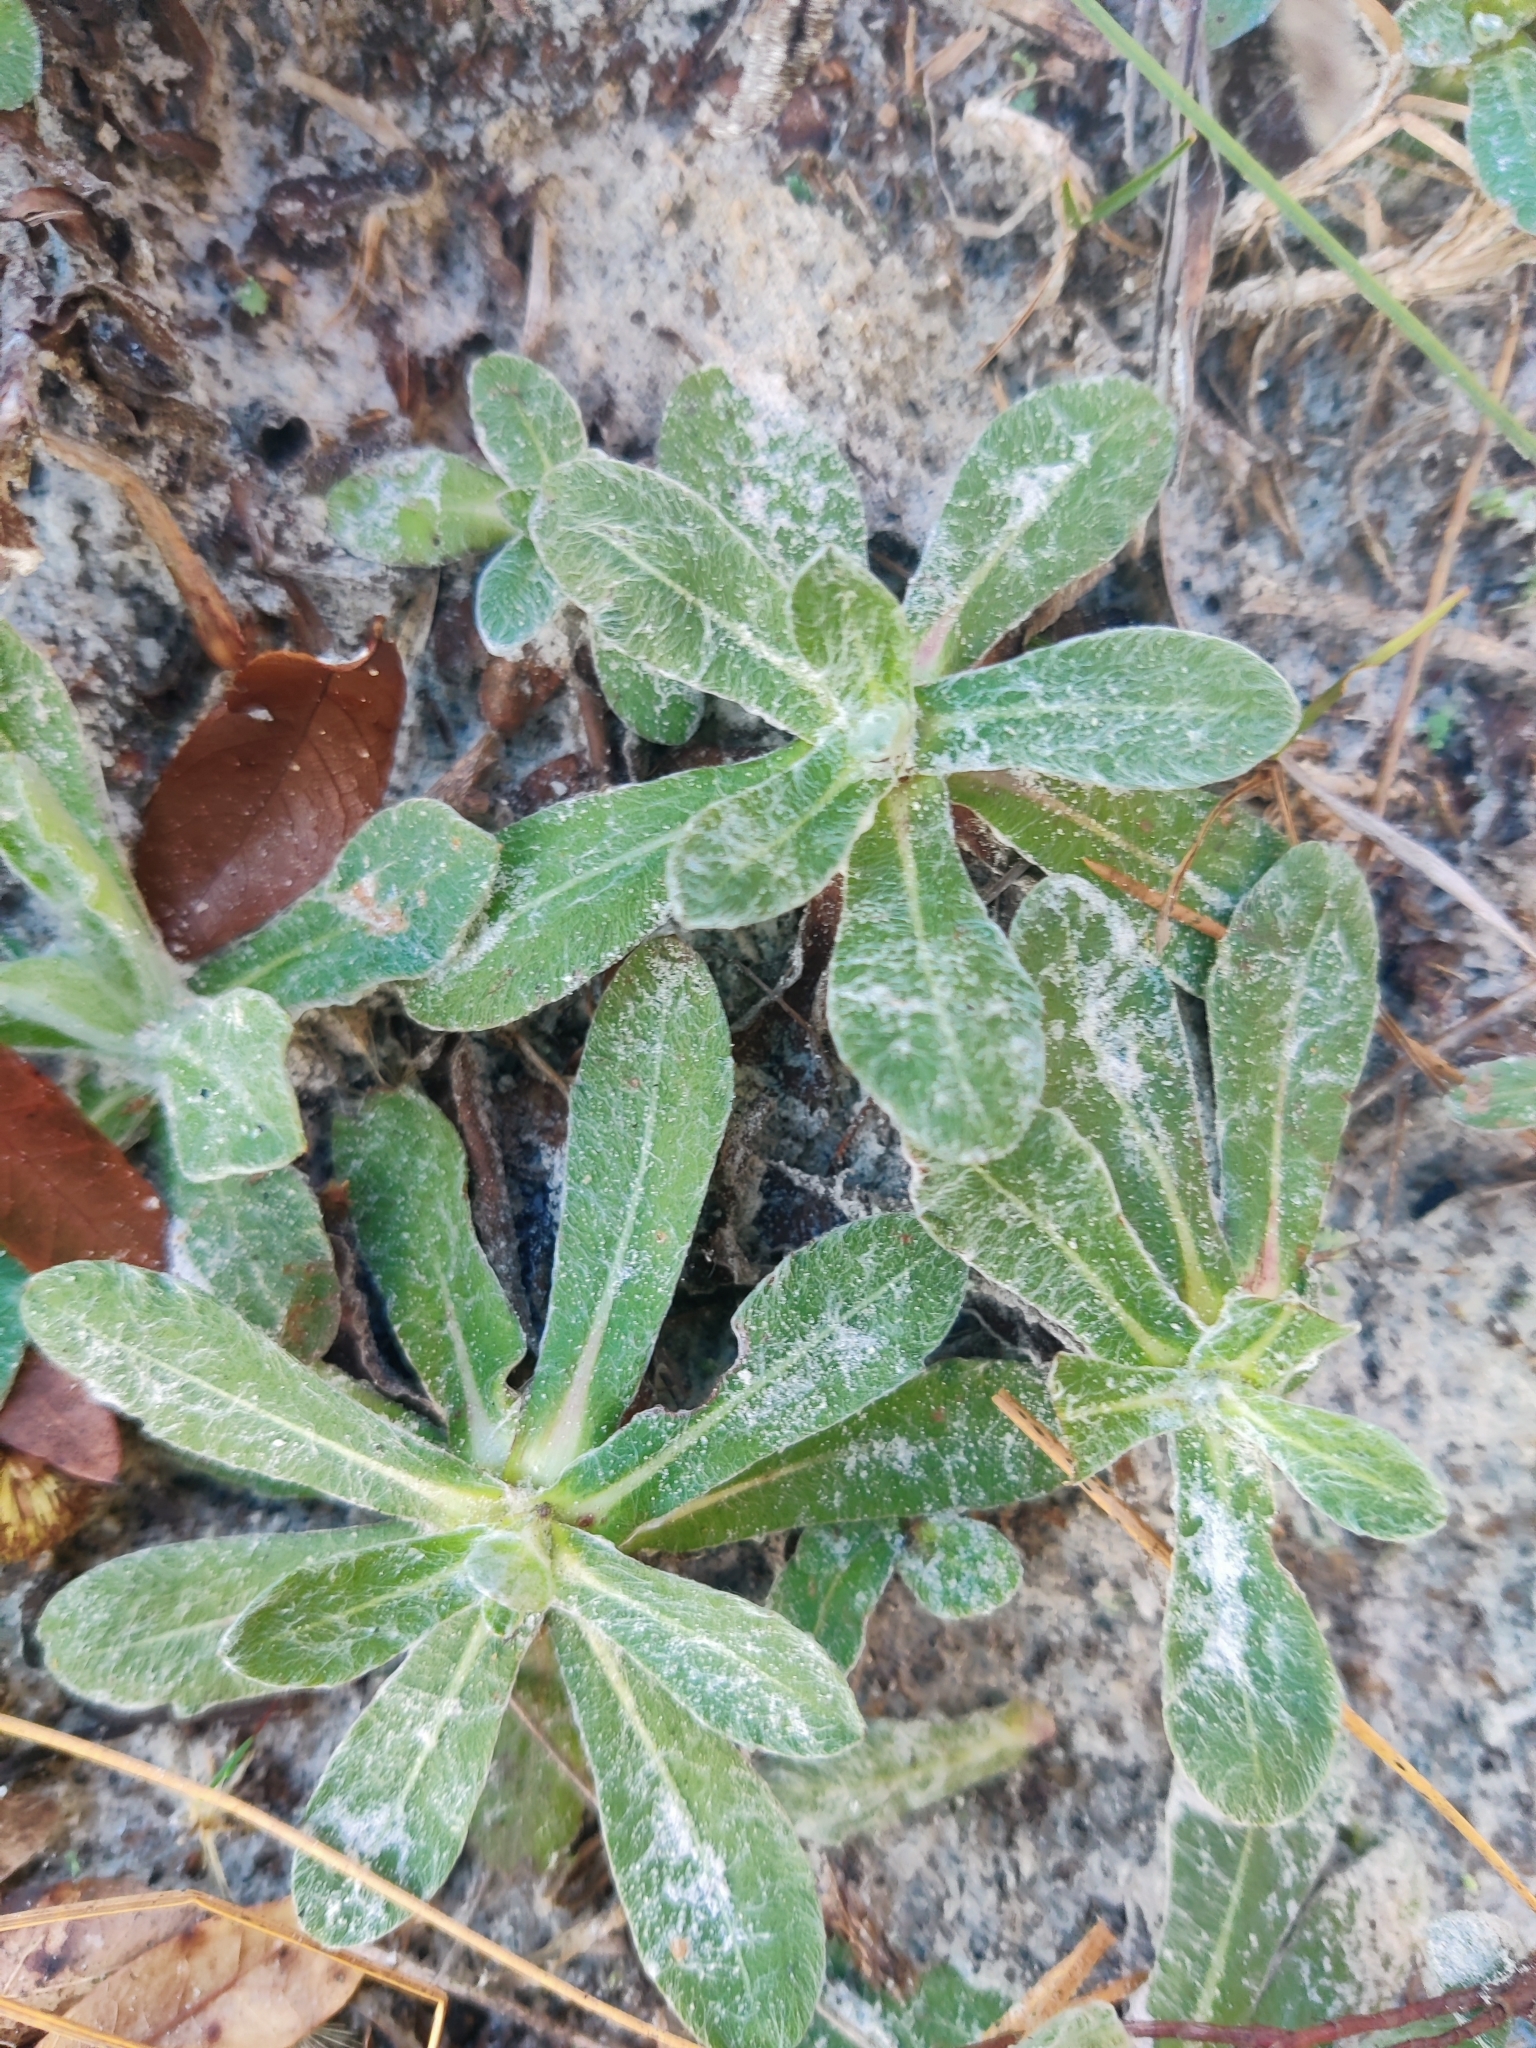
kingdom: Plantae
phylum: Tracheophyta
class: Magnoliopsida
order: Asterales
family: Asteraceae
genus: Chrysopsis
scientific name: Chrysopsis gossypina
